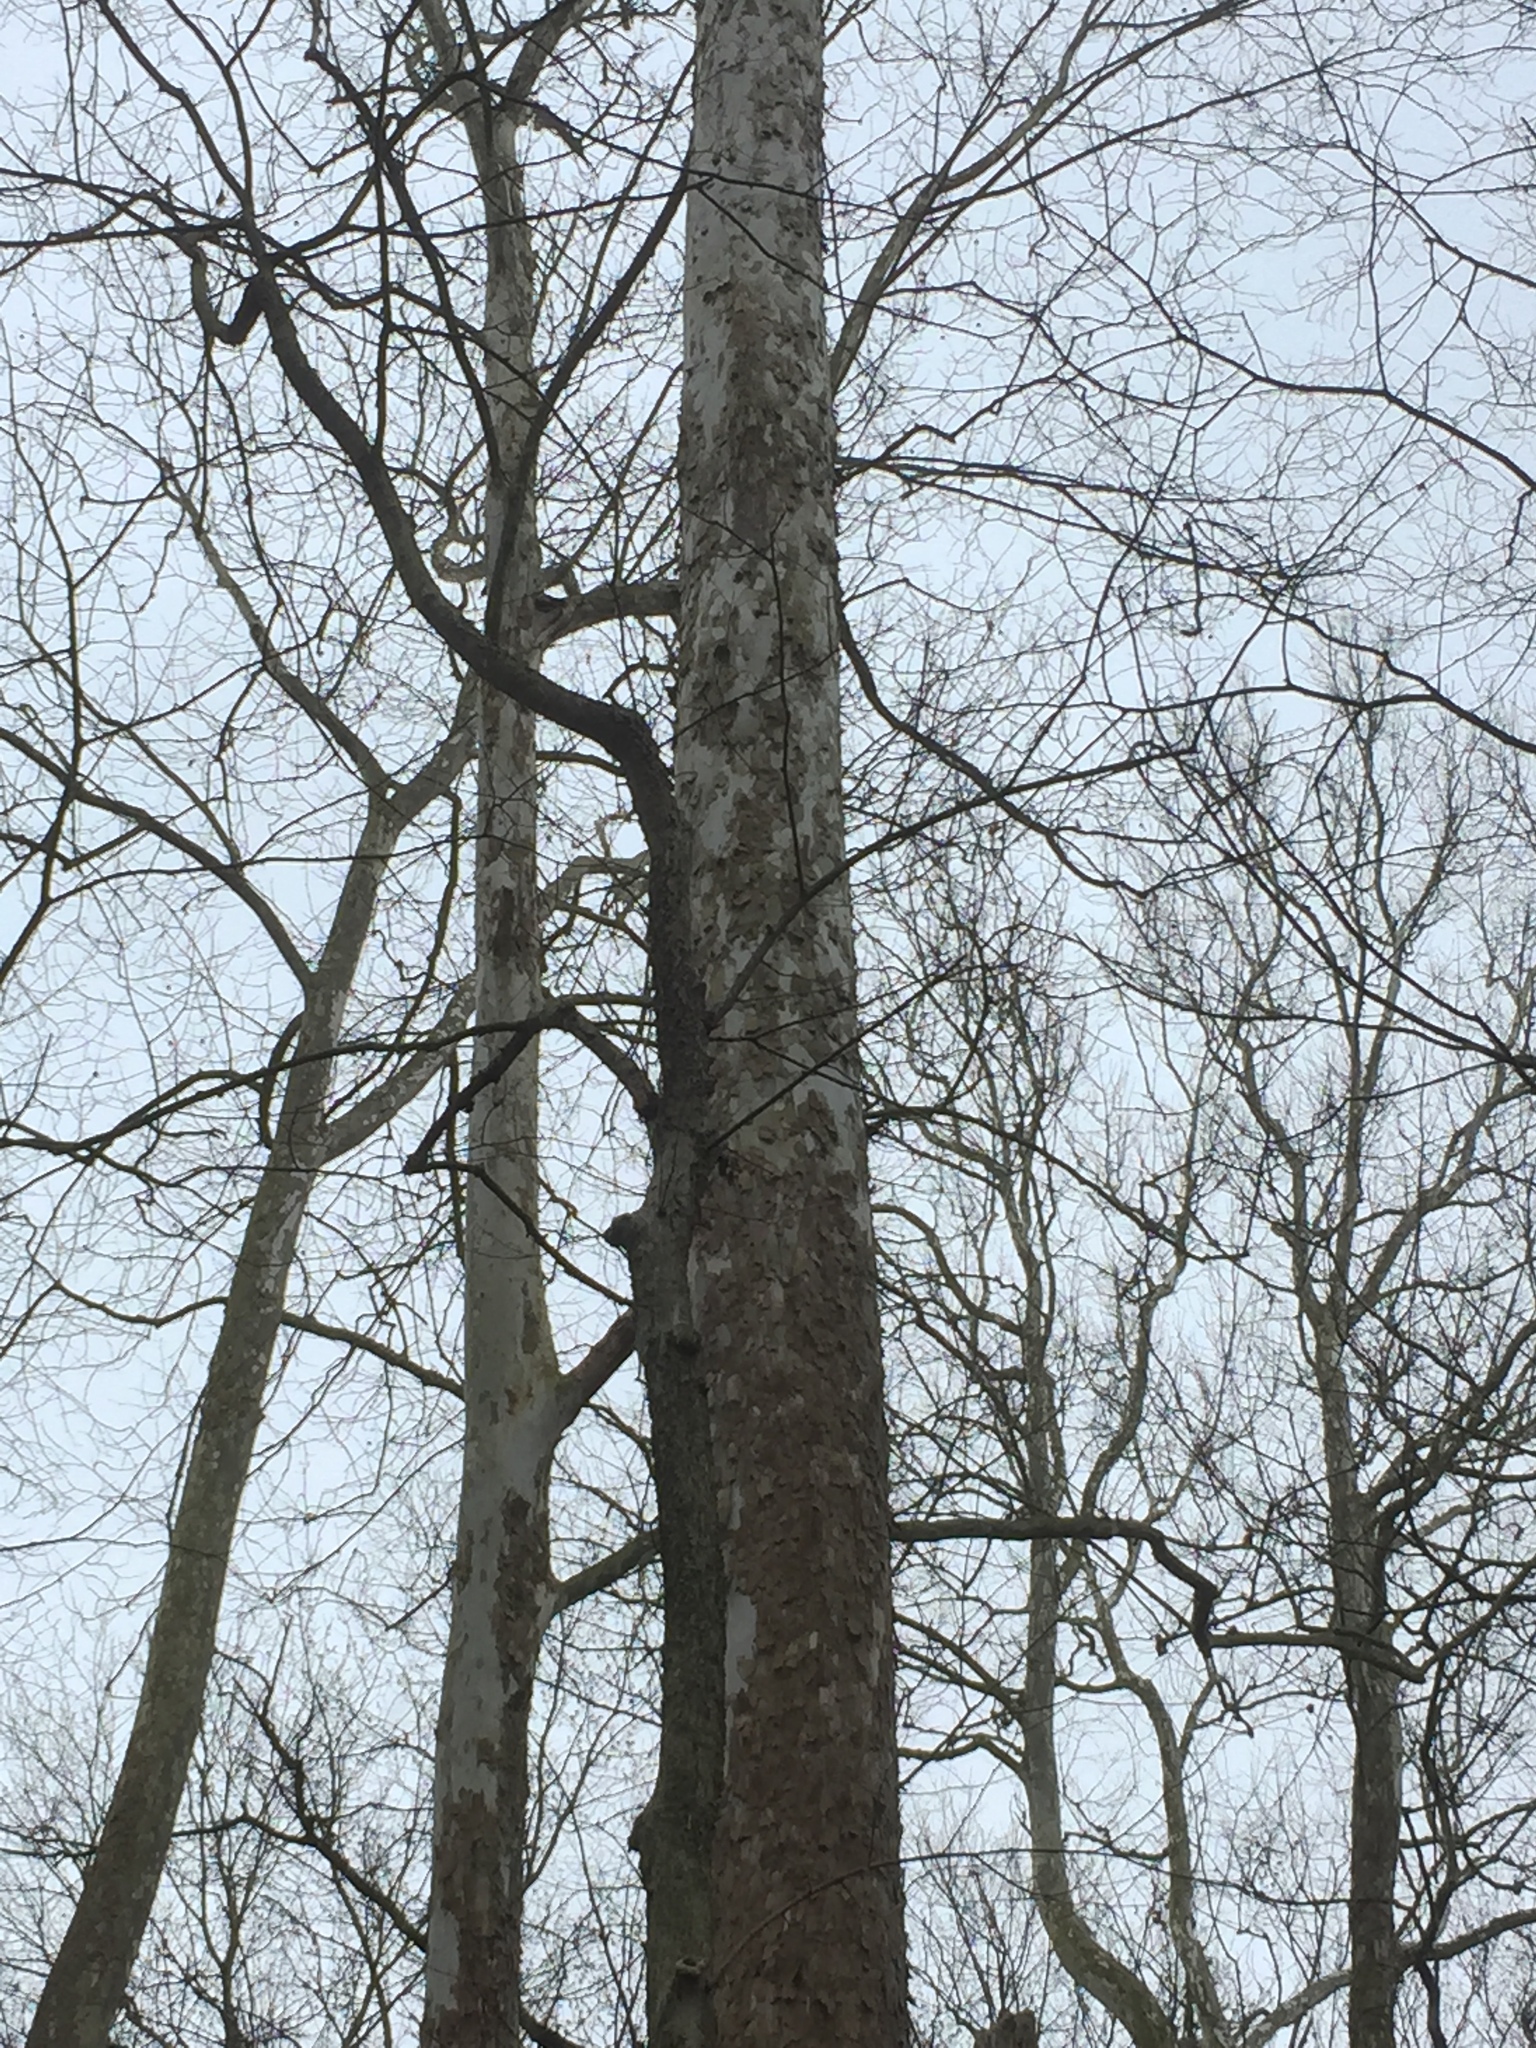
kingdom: Plantae
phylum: Tracheophyta
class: Magnoliopsida
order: Proteales
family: Platanaceae
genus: Platanus
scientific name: Platanus occidentalis
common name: American sycamore
